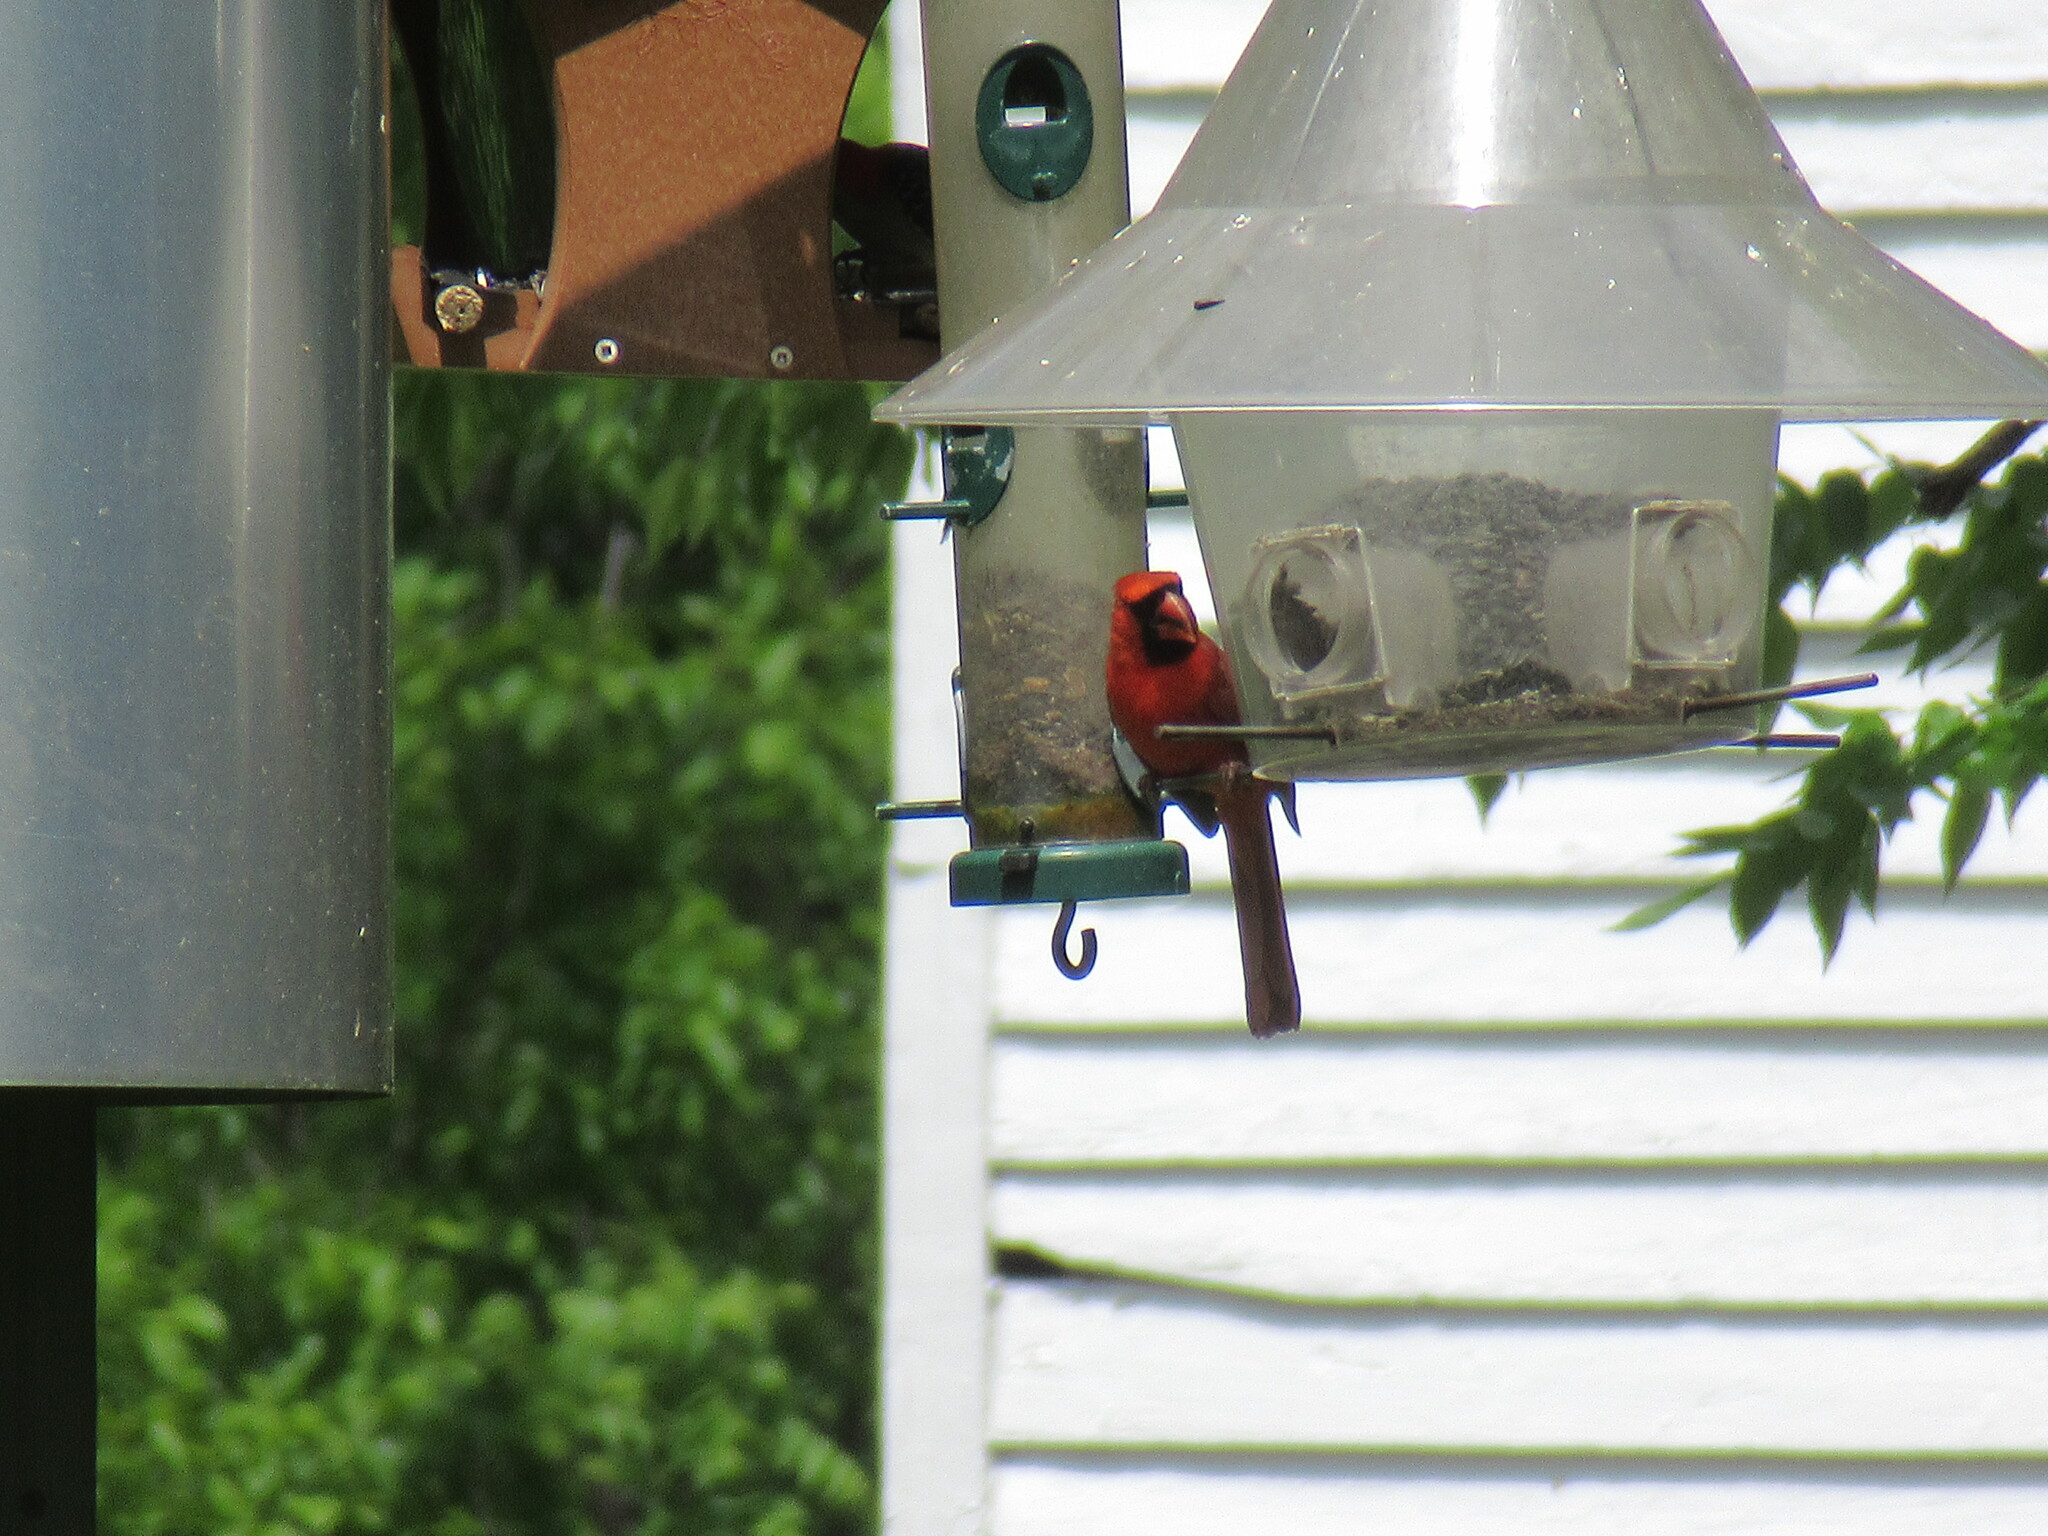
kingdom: Animalia
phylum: Chordata
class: Aves
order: Passeriformes
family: Cardinalidae
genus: Cardinalis
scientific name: Cardinalis cardinalis
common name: Northern cardinal
